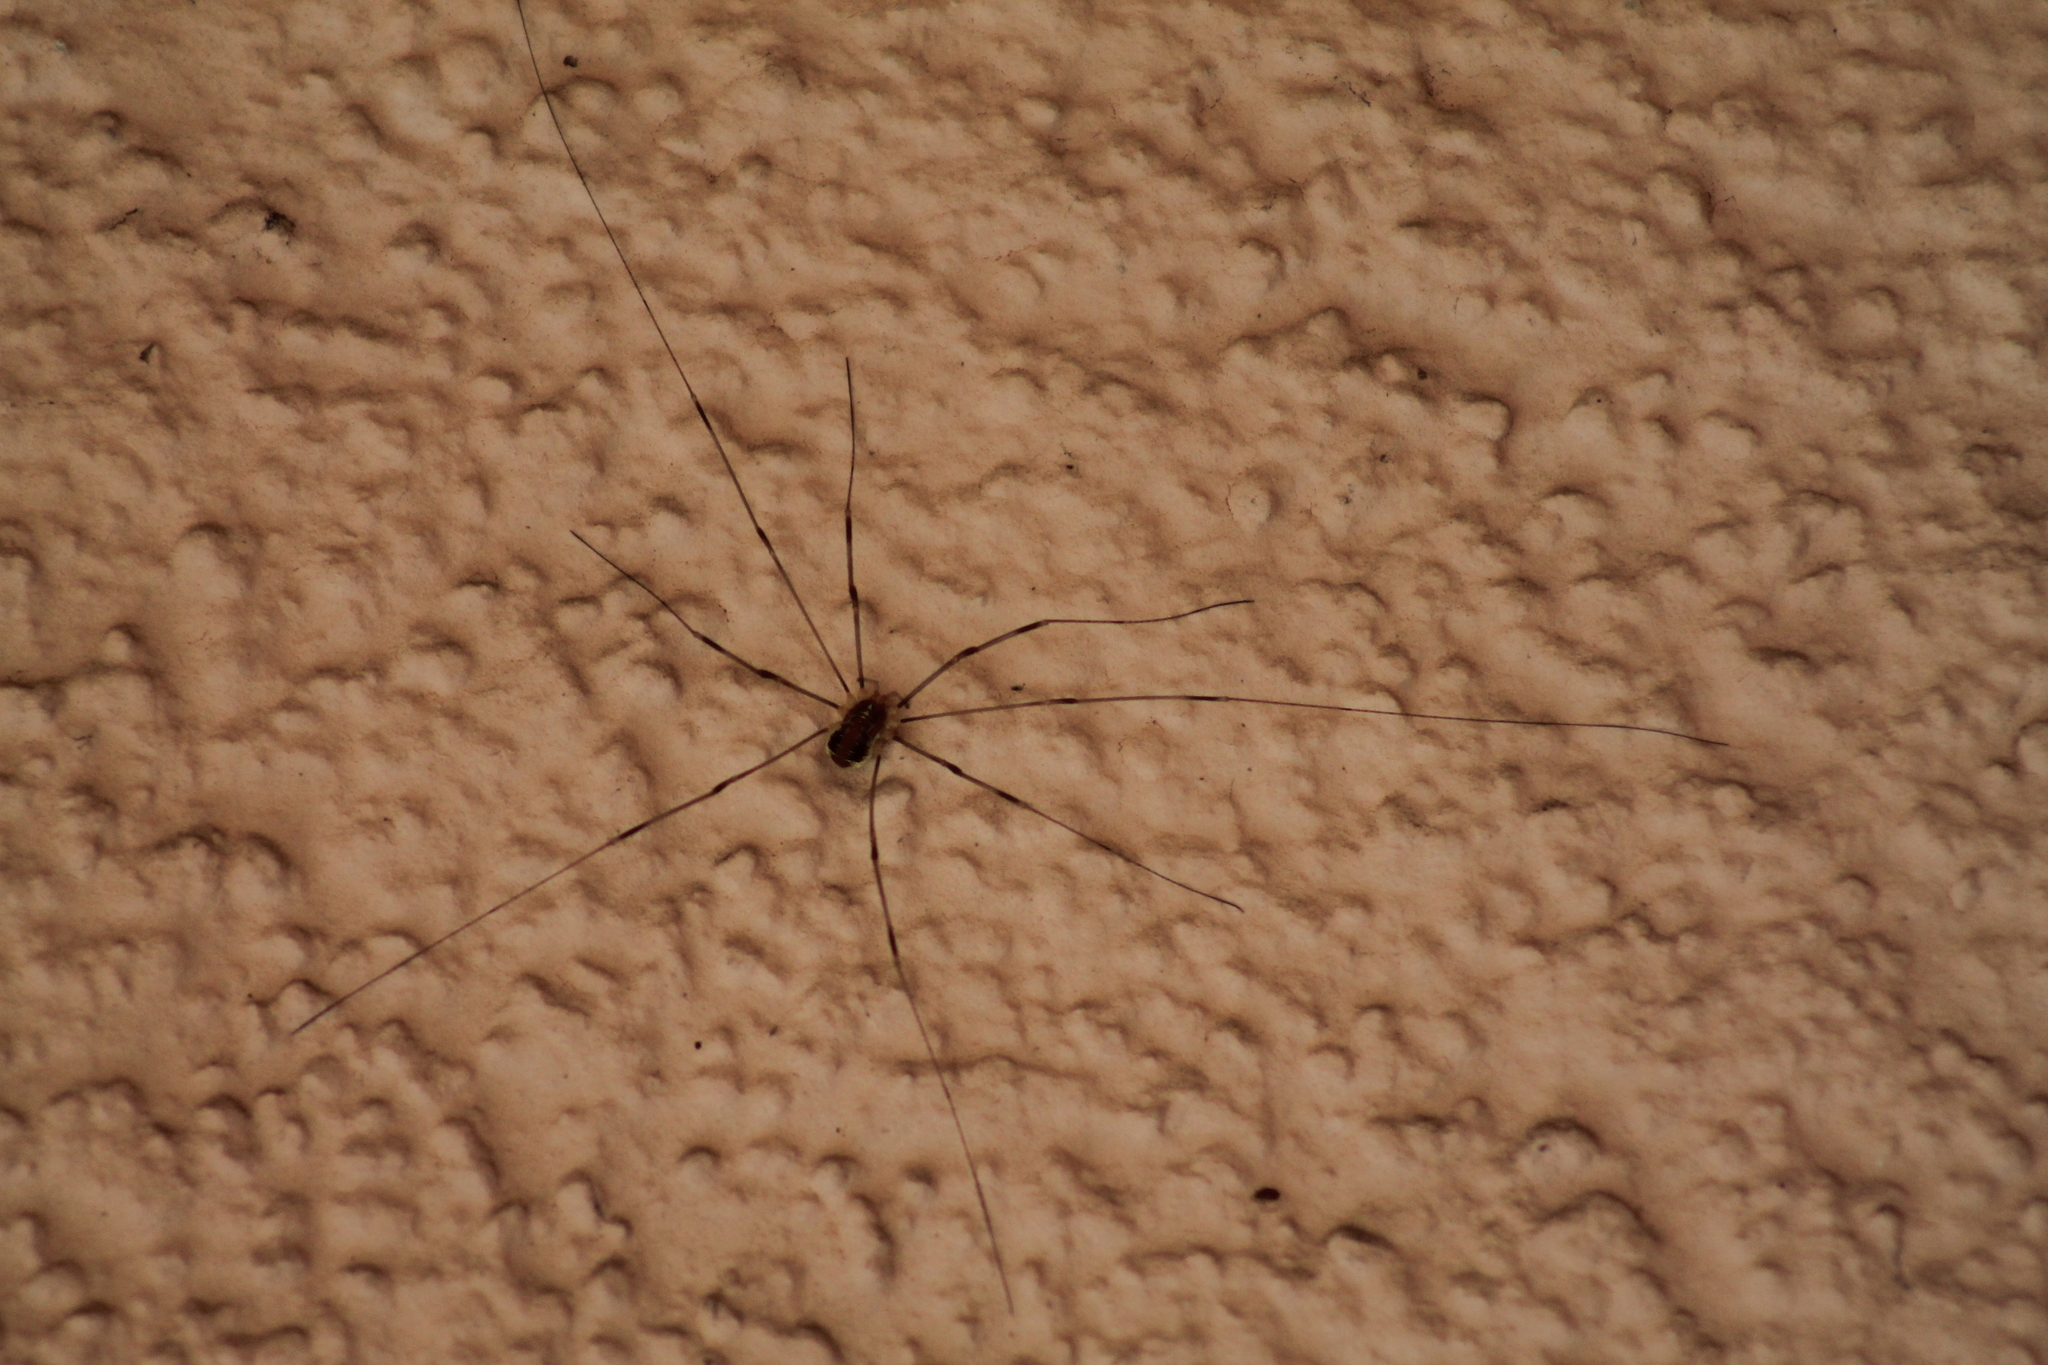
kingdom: Animalia
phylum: Arthropoda
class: Arachnida
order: Opiliones
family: Phalangiidae
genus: Opilio
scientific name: Opilio canestrinii
